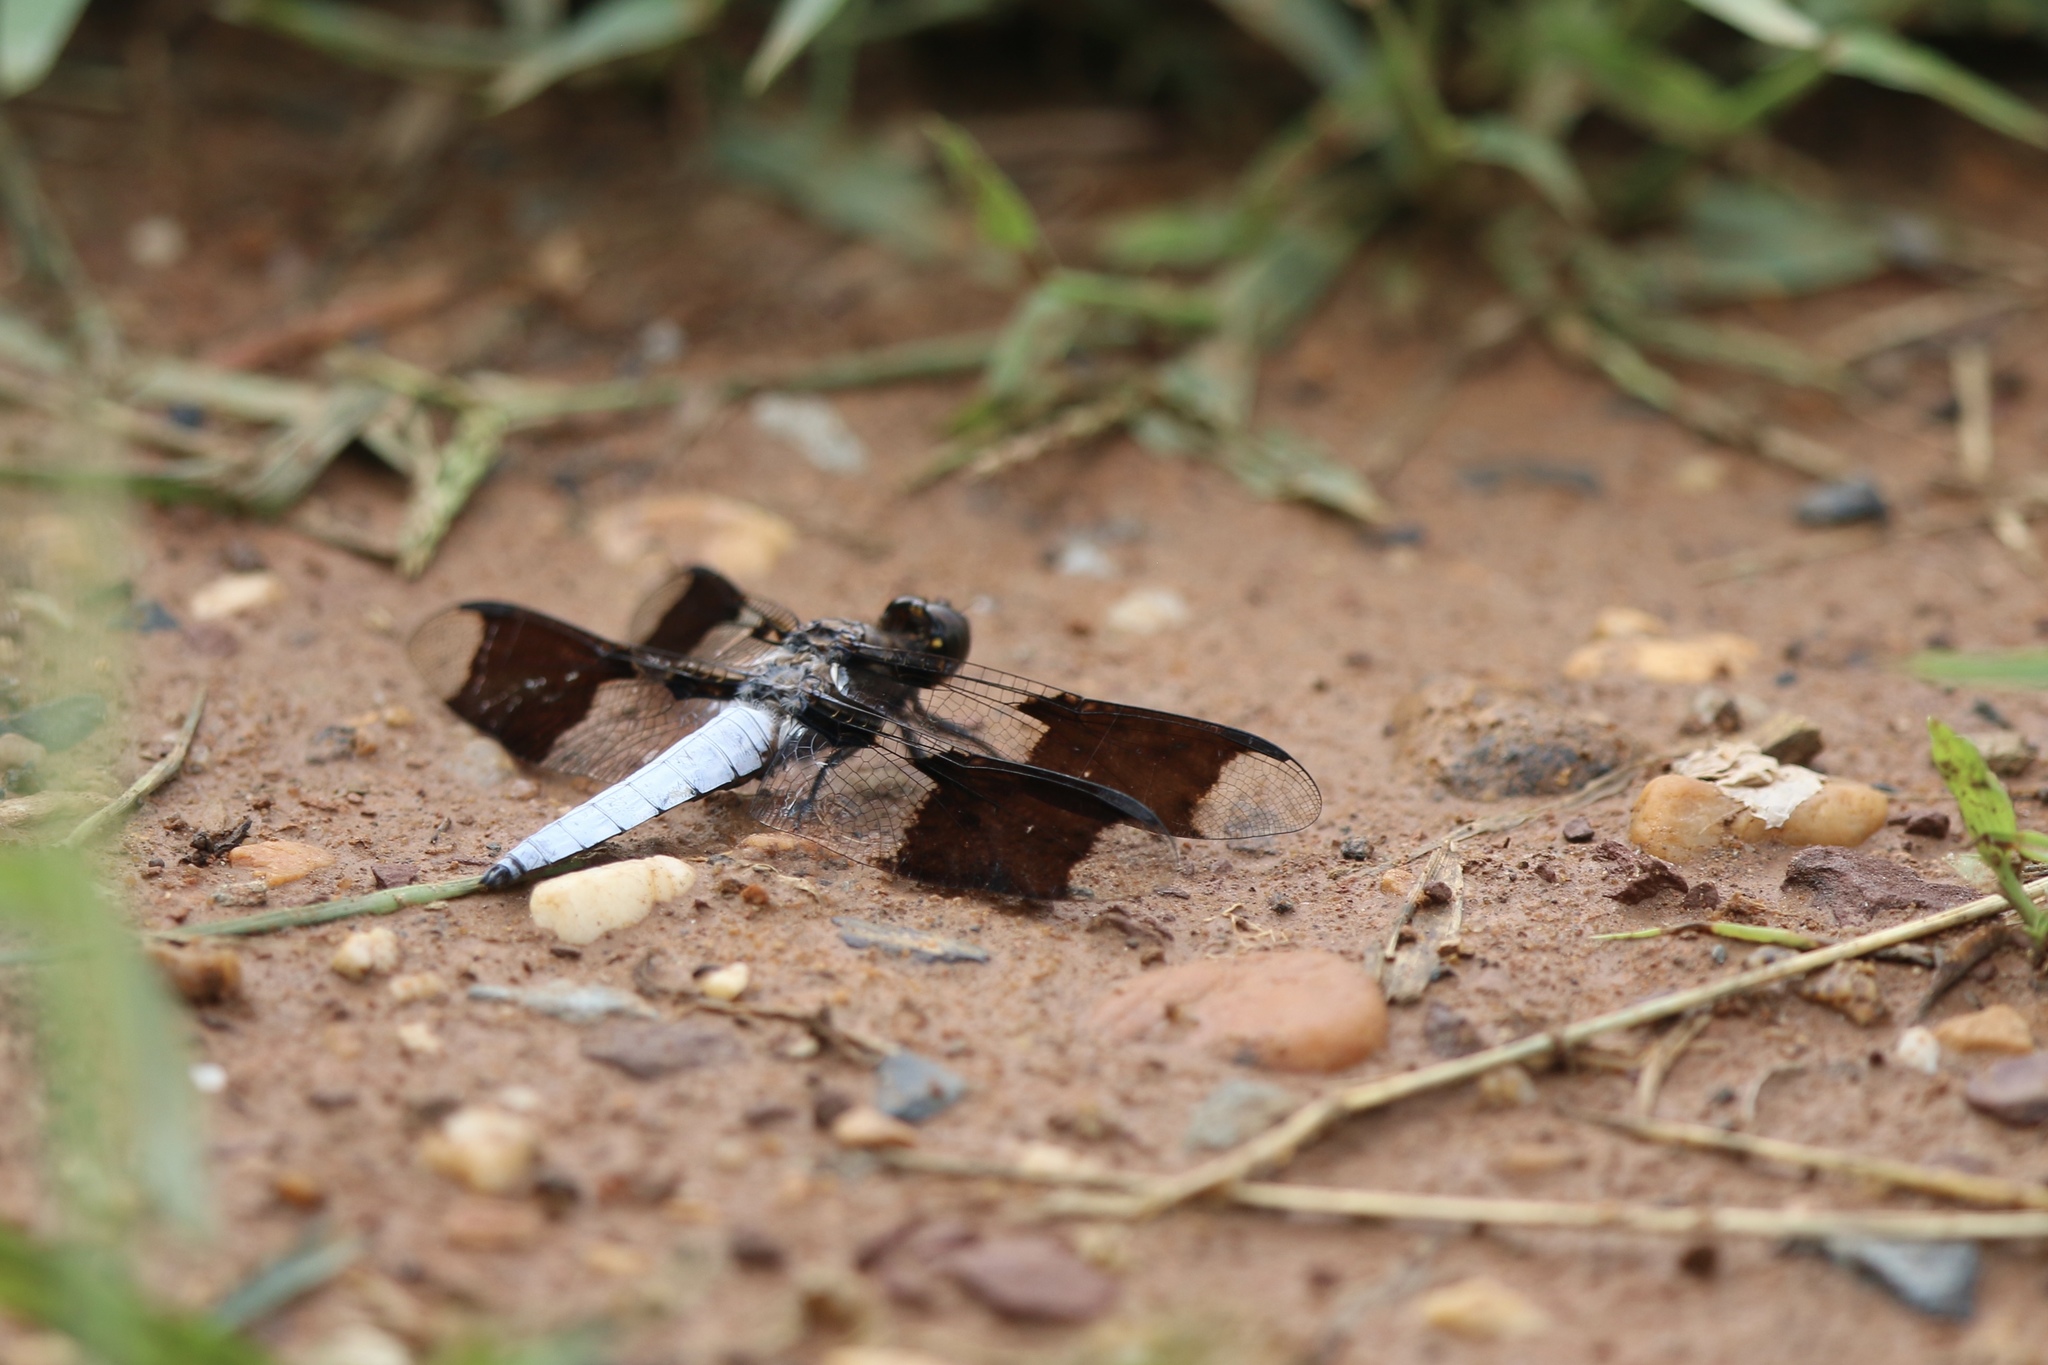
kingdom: Animalia
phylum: Arthropoda
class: Insecta
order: Odonata
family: Libellulidae
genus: Plathemis
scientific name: Plathemis lydia
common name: Common whitetail
